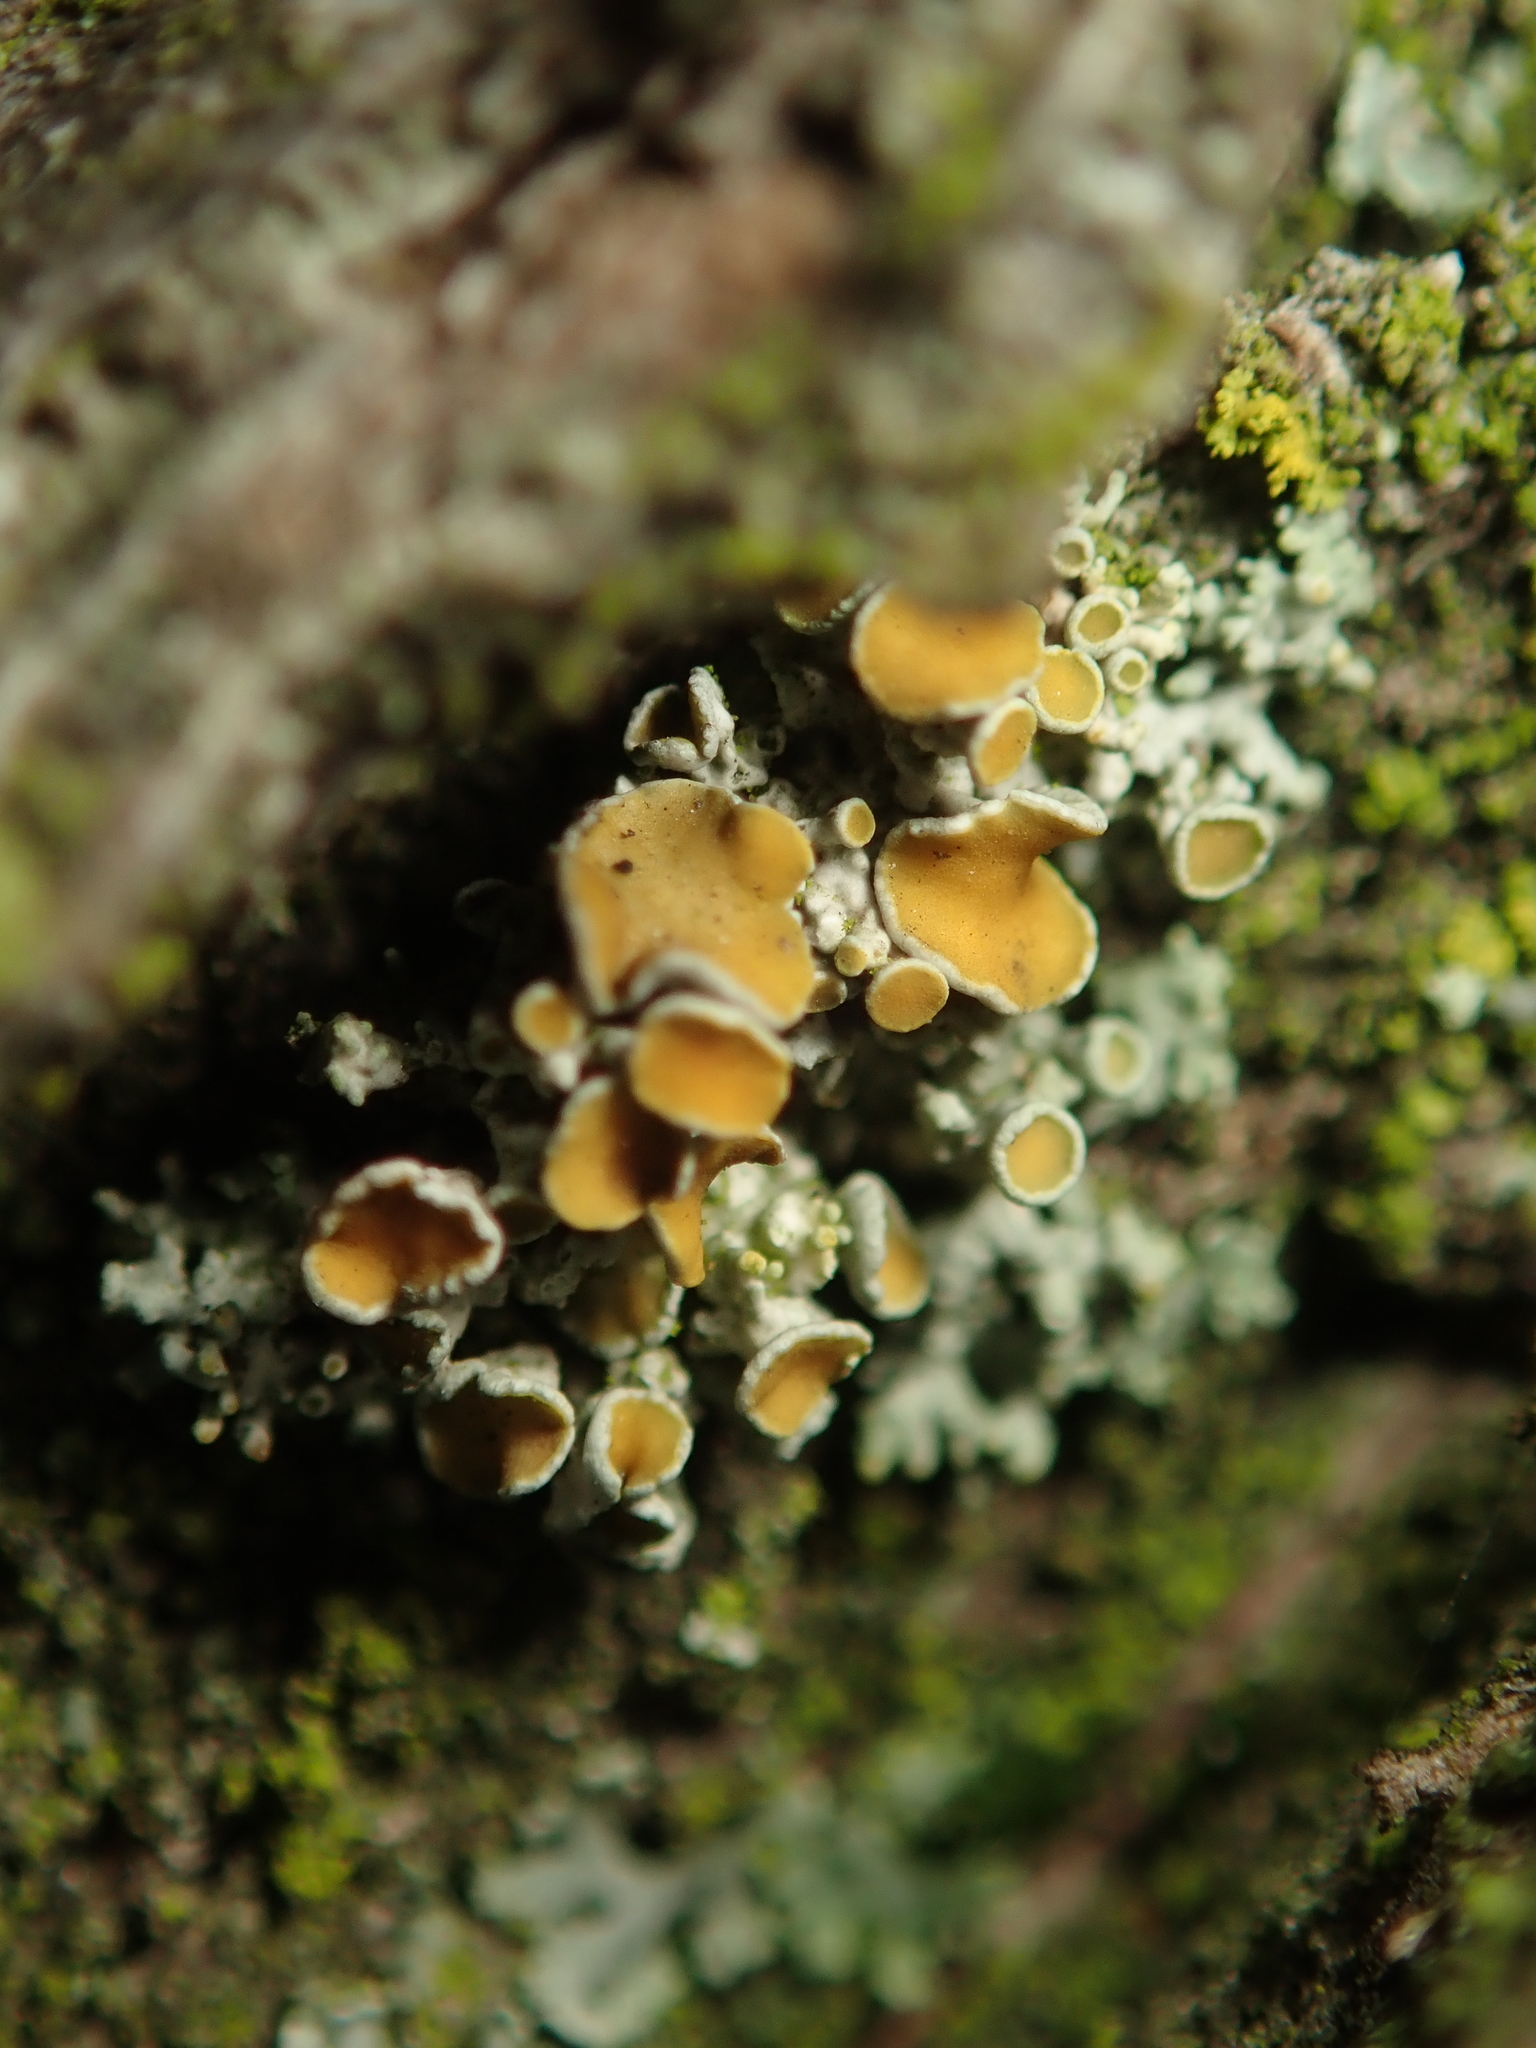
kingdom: Fungi
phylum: Ascomycota
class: Lecanoromycetes
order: Teloschistales
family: Teloschistaceae
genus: Polycauliona
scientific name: Polycauliona polycarpa
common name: Pin-cushion sunburst lichen
